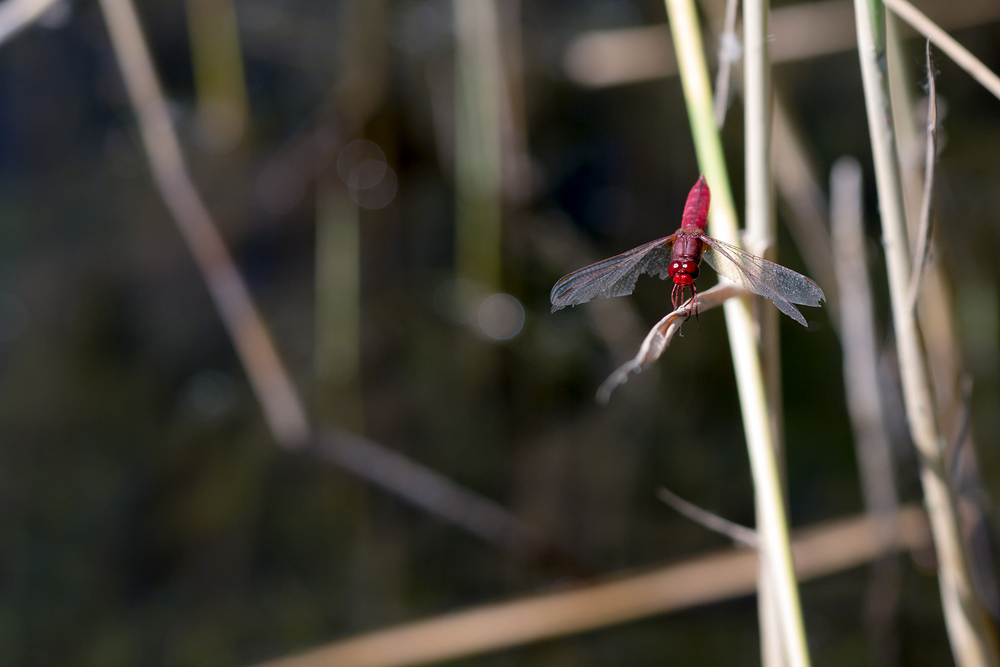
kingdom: Animalia
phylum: Arthropoda
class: Insecta
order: Odonata
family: Libellulidae
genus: Crocothemis
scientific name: Crocothemis erythraea
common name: Scarlet dragonfly
